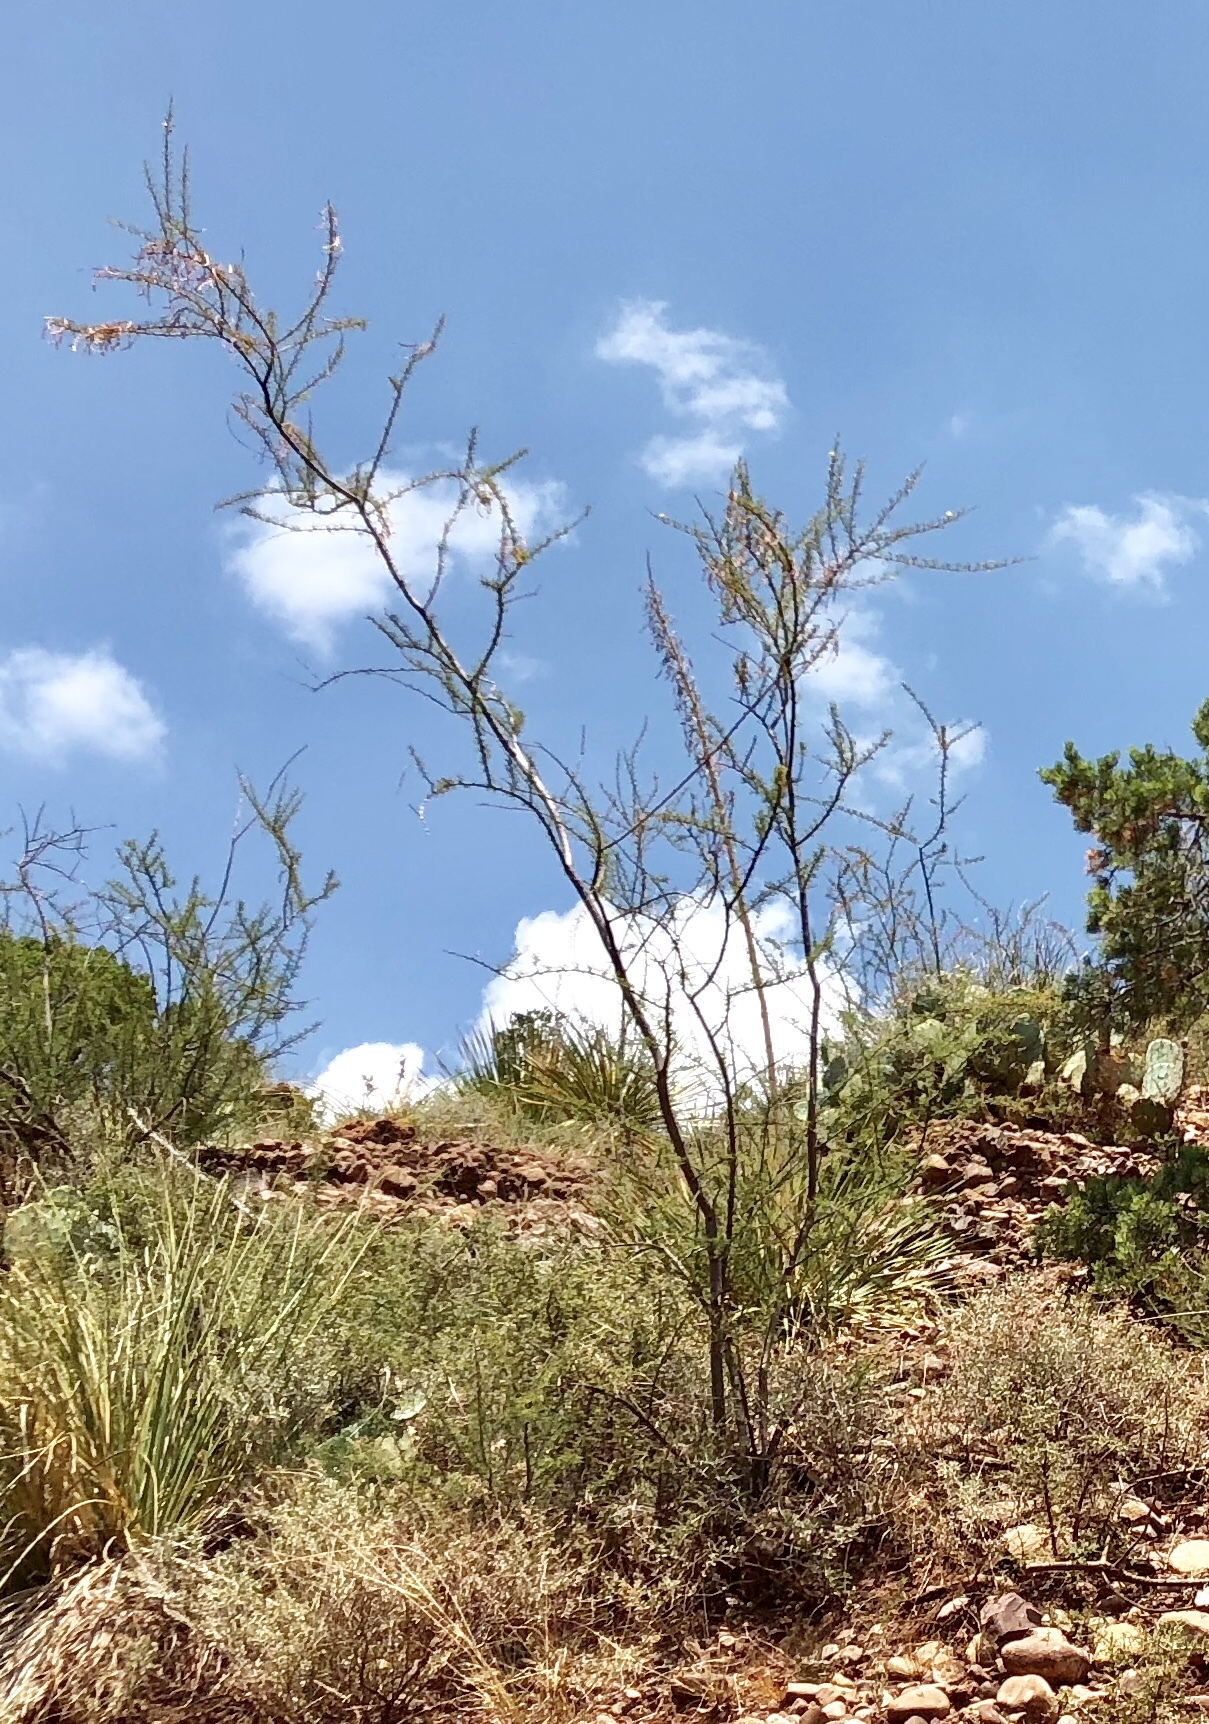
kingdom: Plantae
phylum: Tracheophyta
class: Magnoliopsida
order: Fabales
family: Fabaceae
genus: Vachellia
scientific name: Vachellia constricta
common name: Mescat acacia
